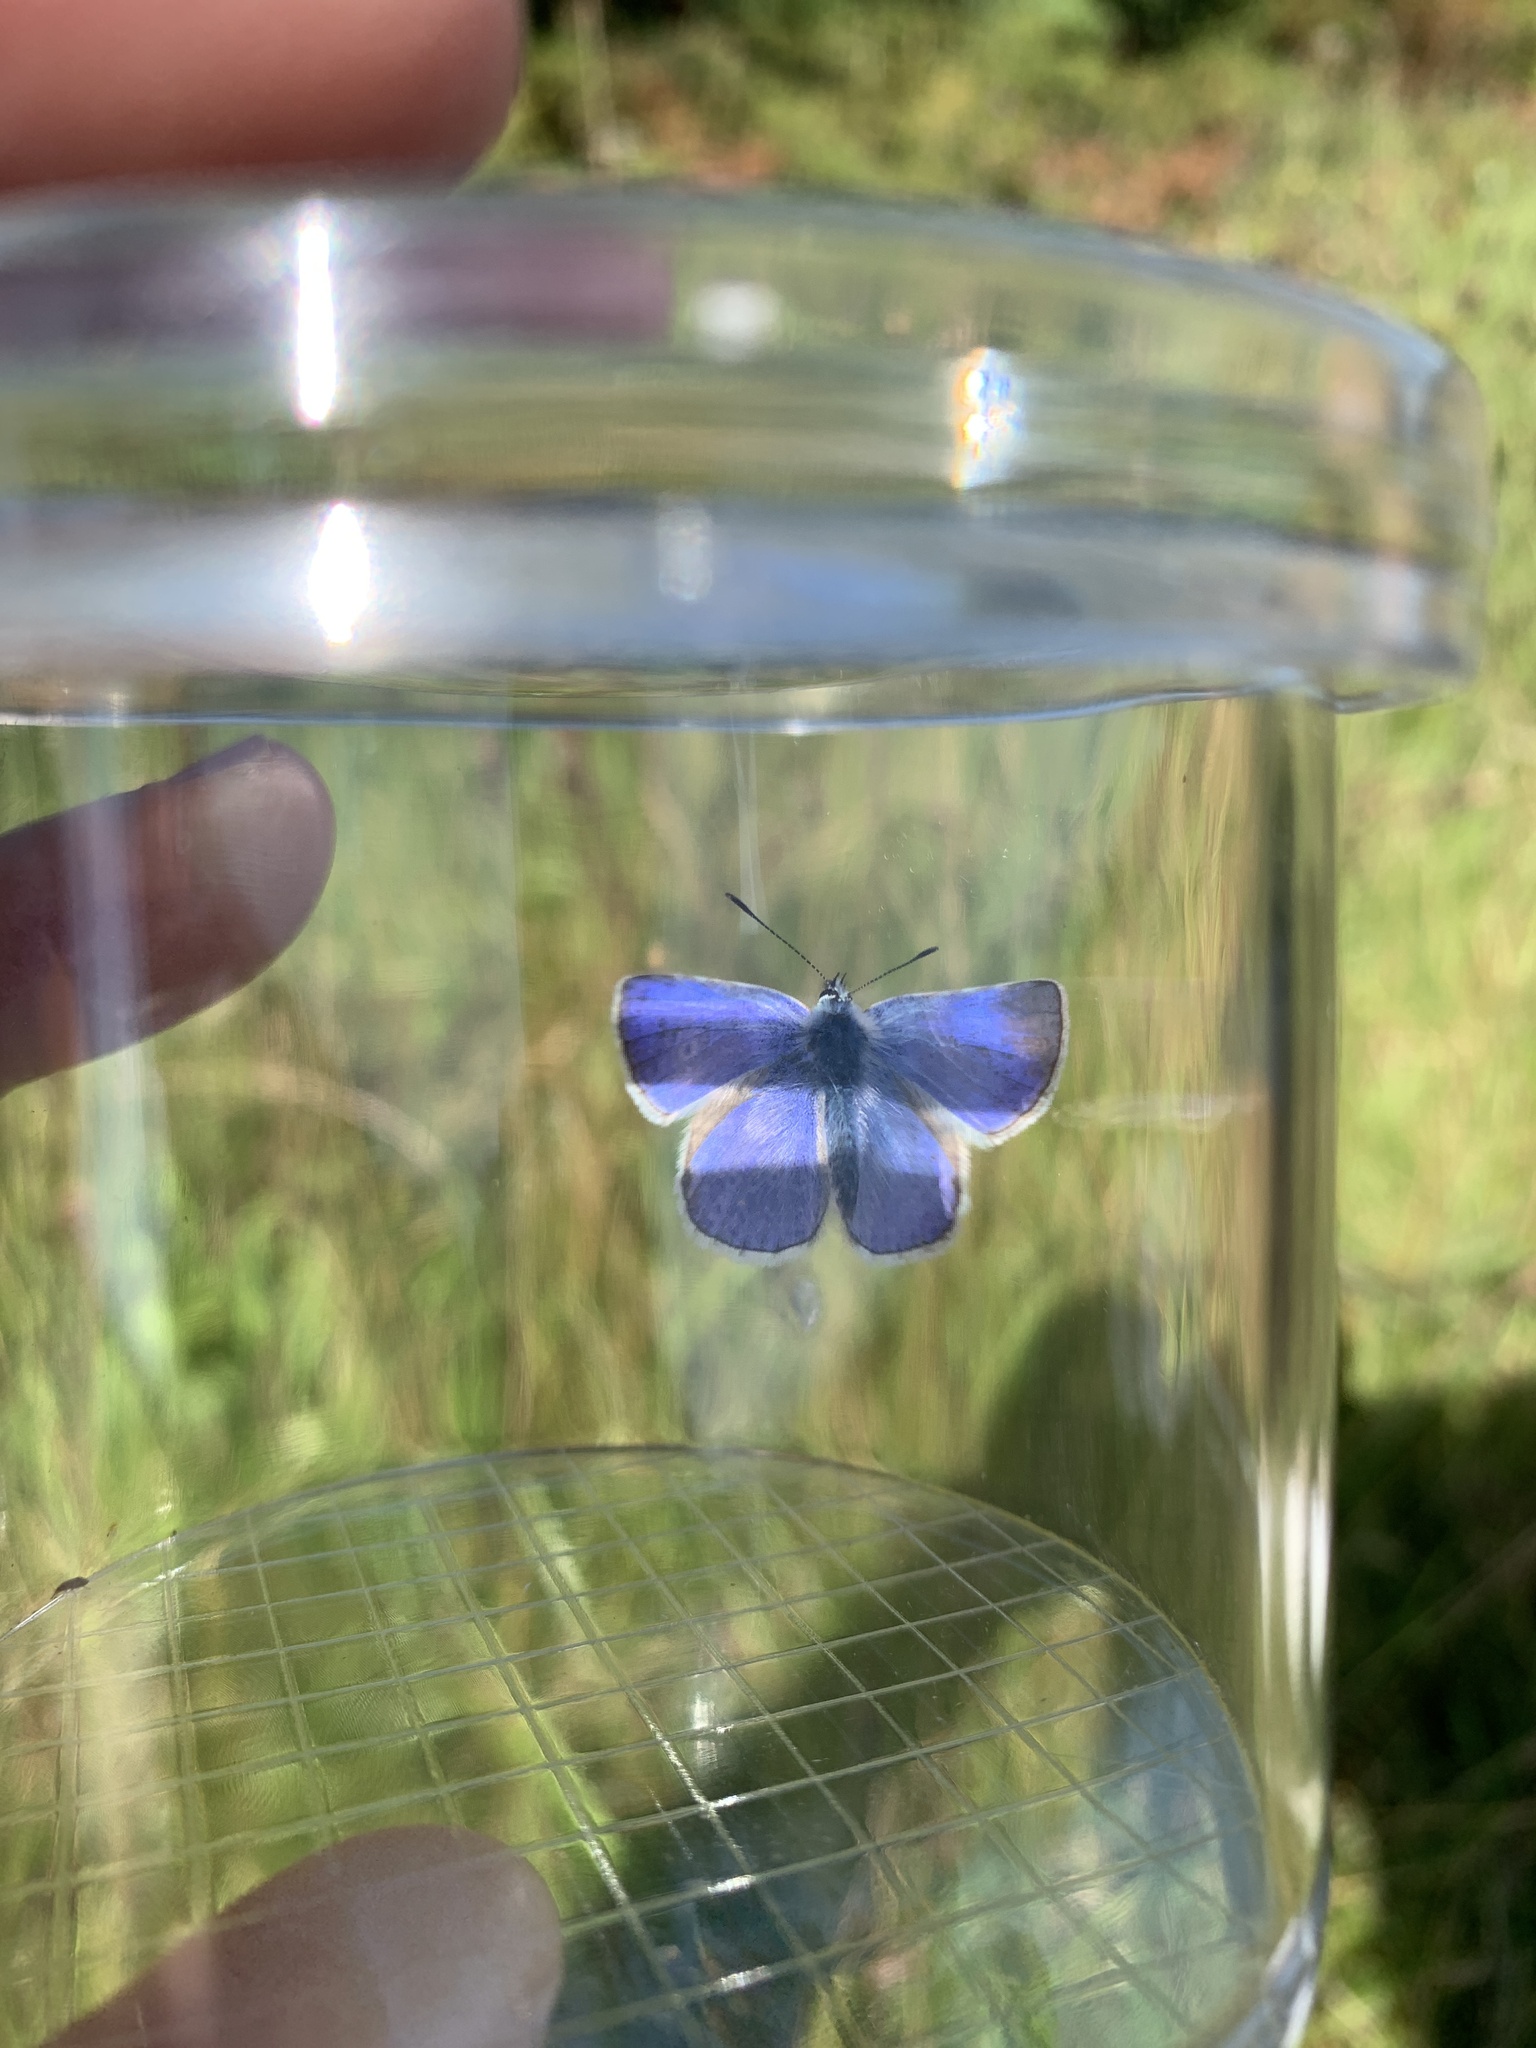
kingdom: Animalia
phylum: Arthropoda
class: Insecta
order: Lepidoptera
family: Lycaenidae
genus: Polyommatus
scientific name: Polyommatus icarus
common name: Common blue
